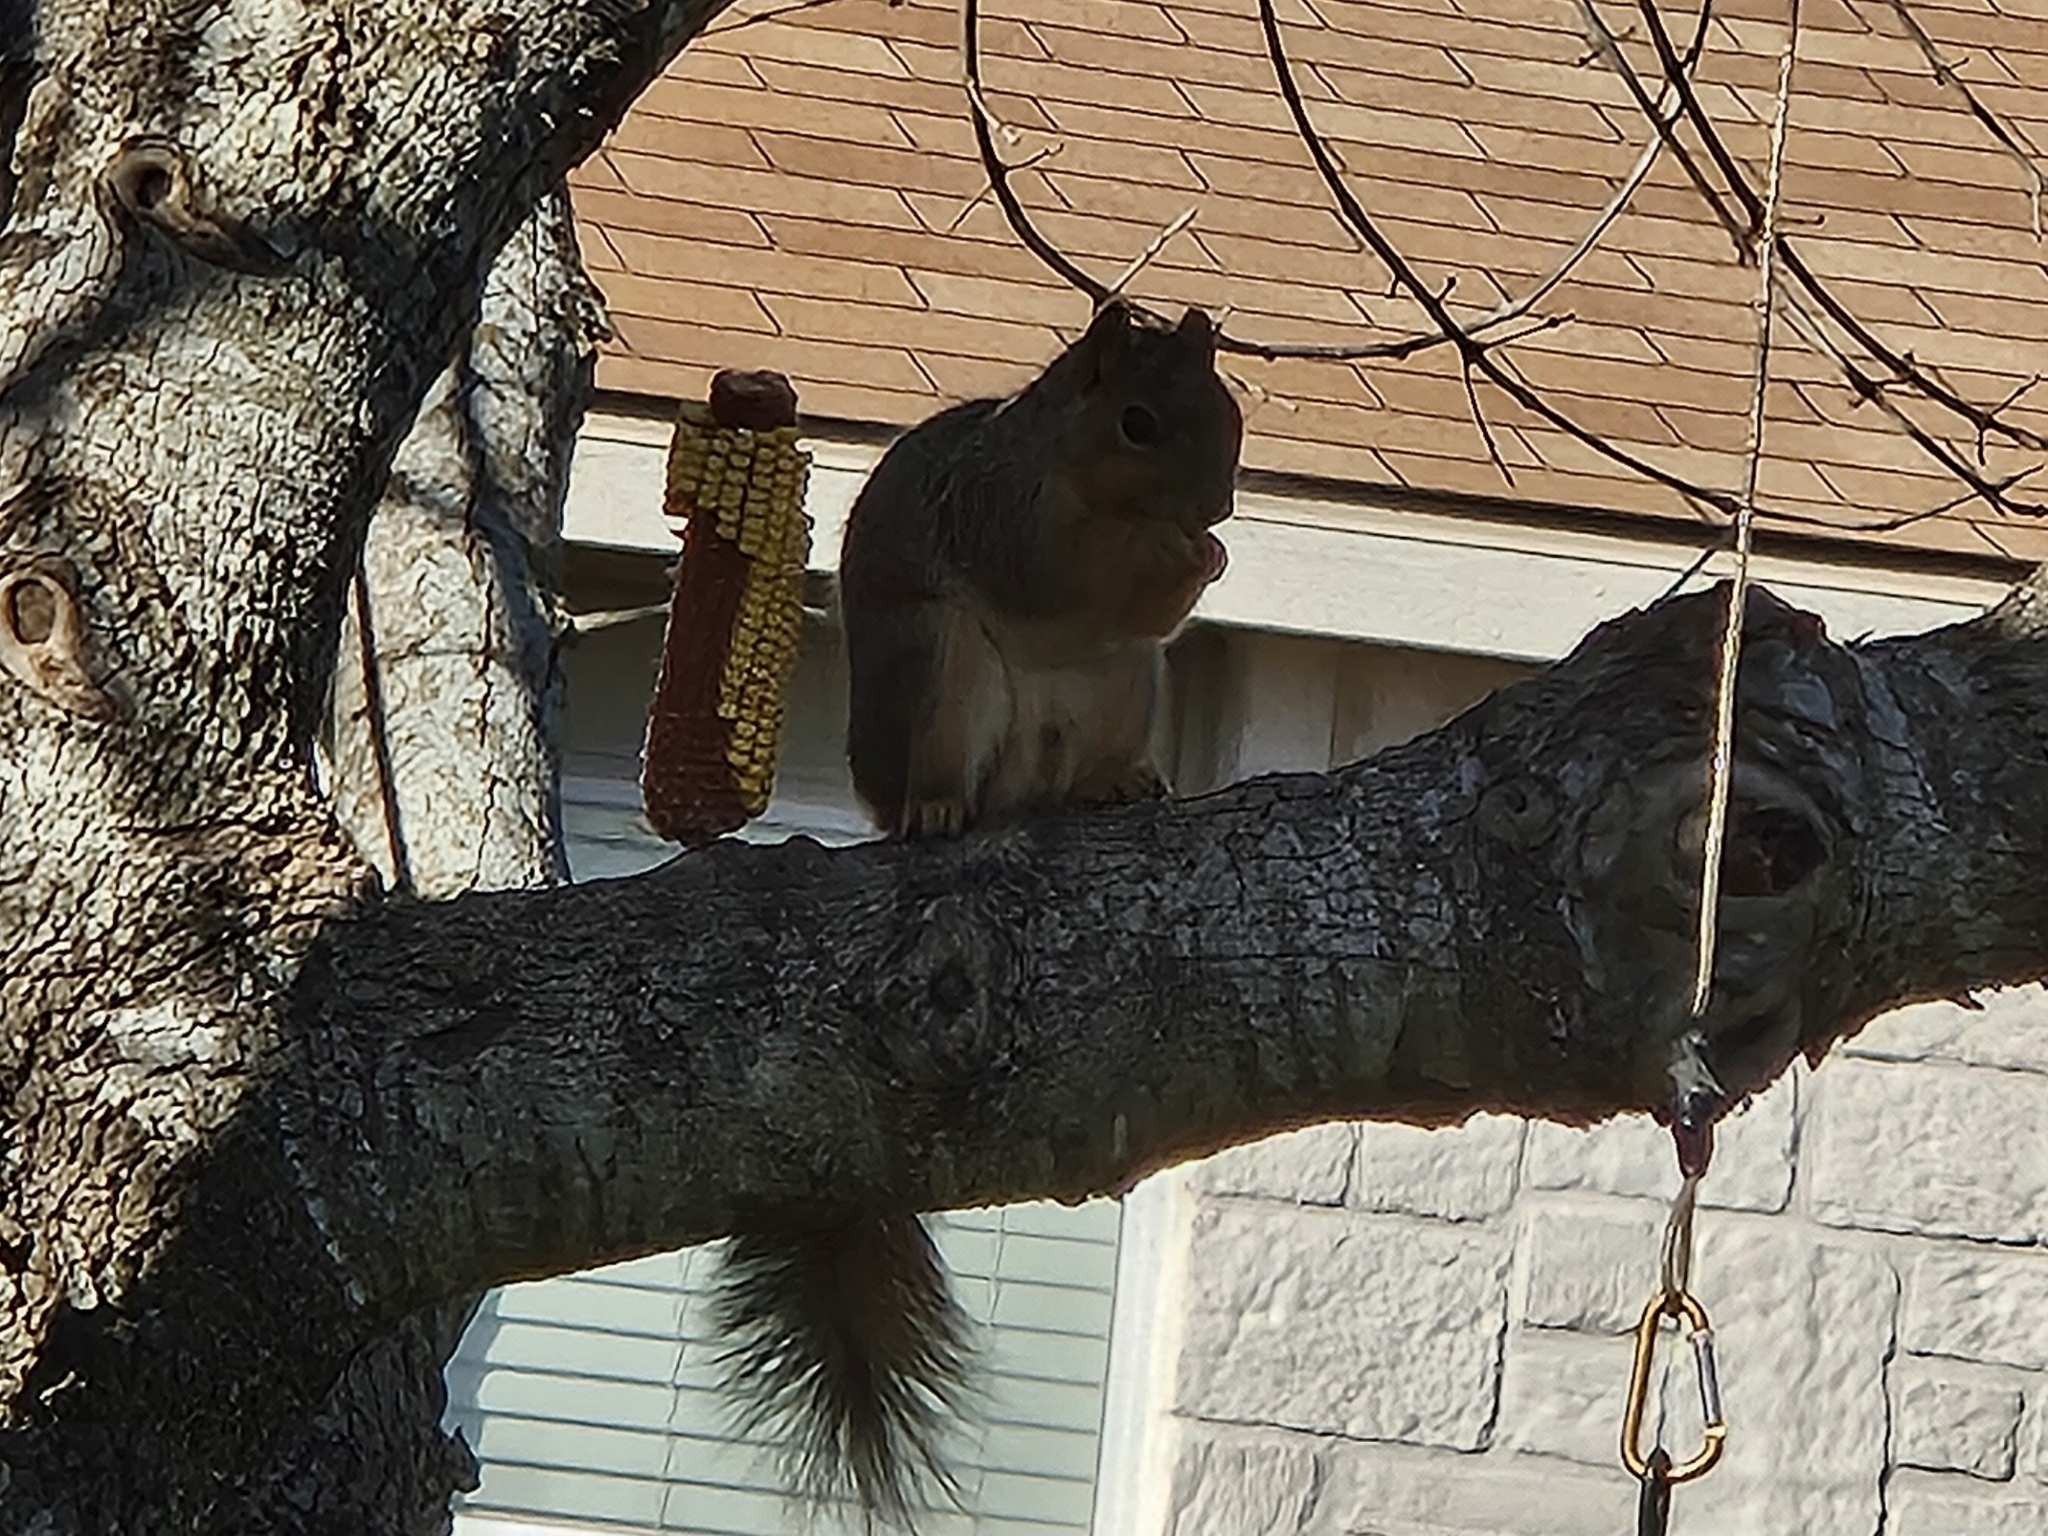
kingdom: Animalia
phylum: Chordata
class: Mammalia
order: Rodentia
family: Sciuridae
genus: Sciurus
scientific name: Sciurus niger
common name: Fox squirrel
